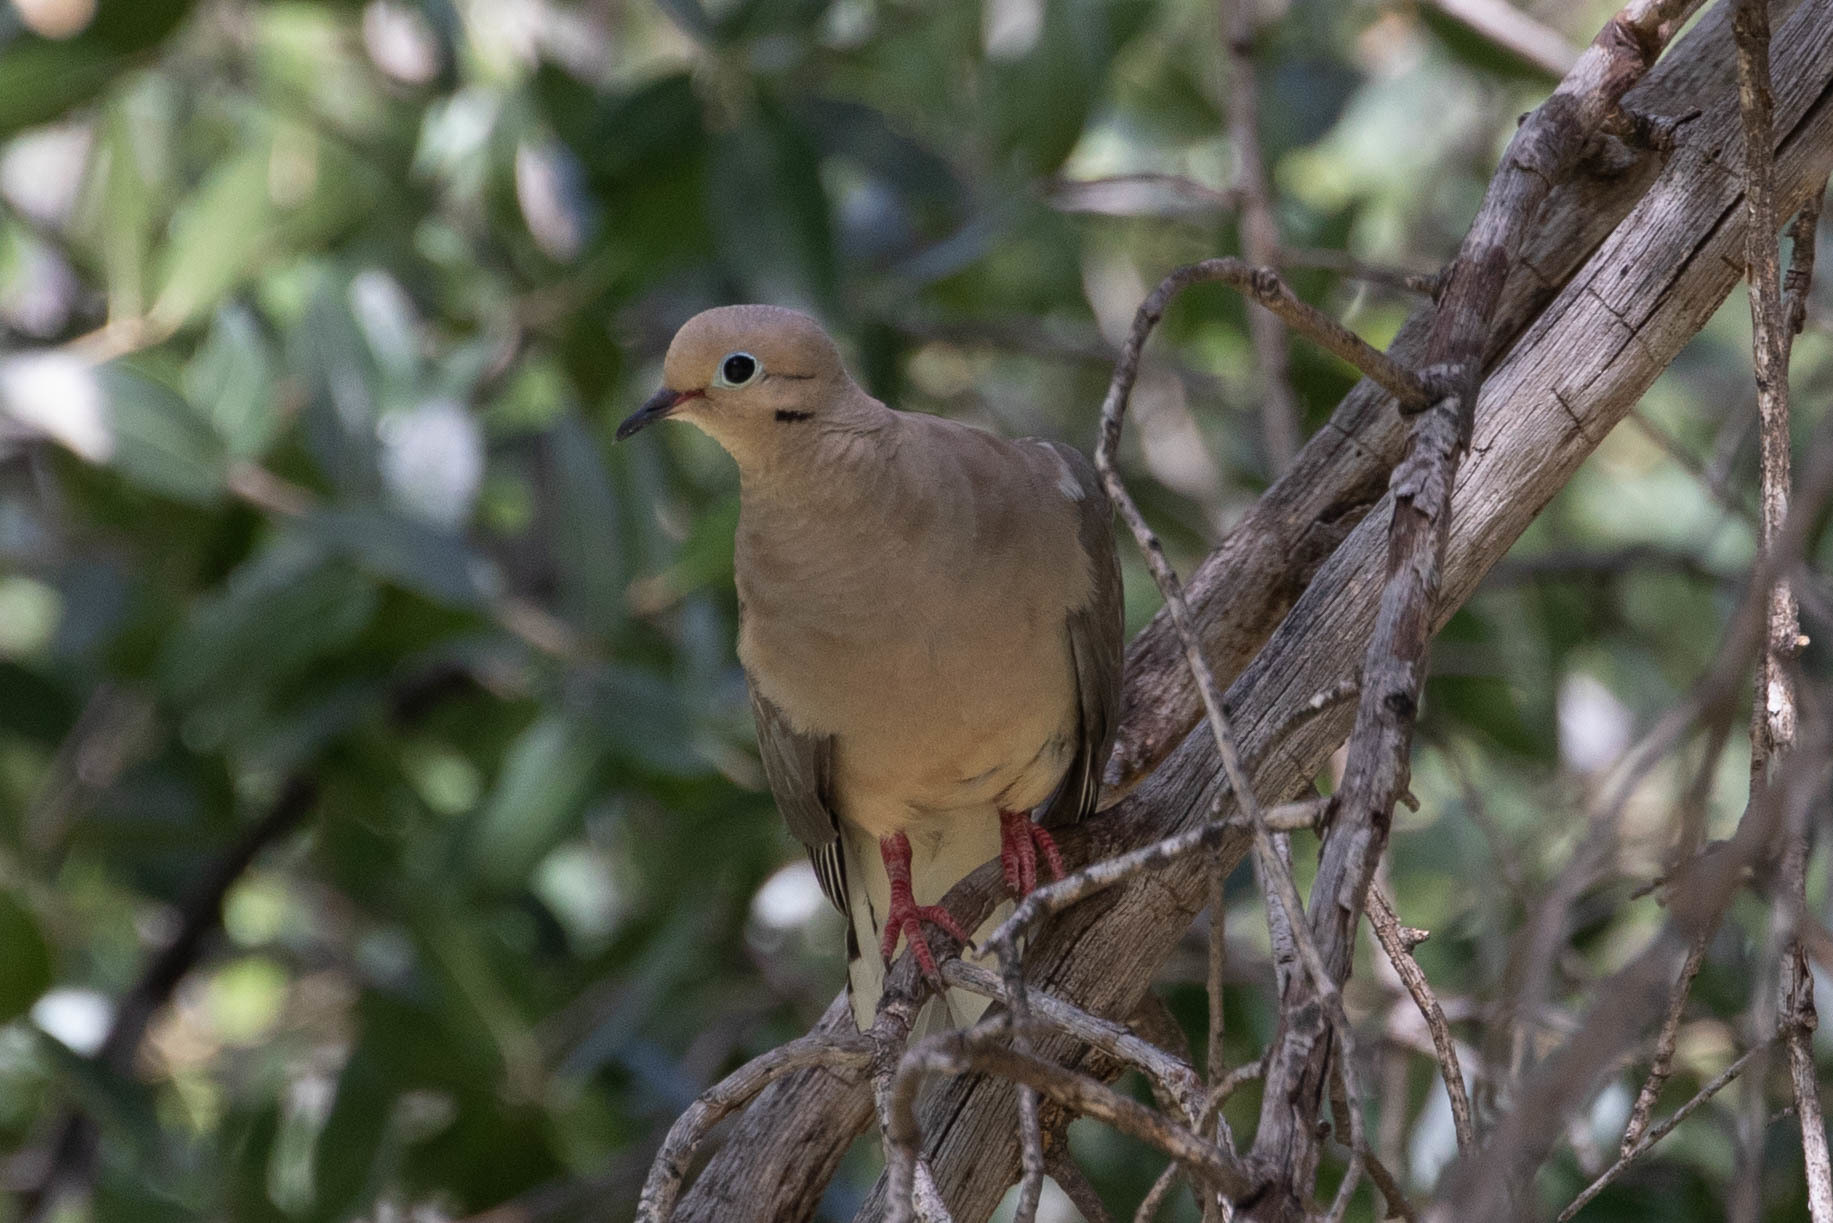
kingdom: Animalia
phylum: Chordata
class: Aves
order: Columbiformes
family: Columbidae
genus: Zenaida
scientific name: Zenaida macroura
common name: Mourning dove
